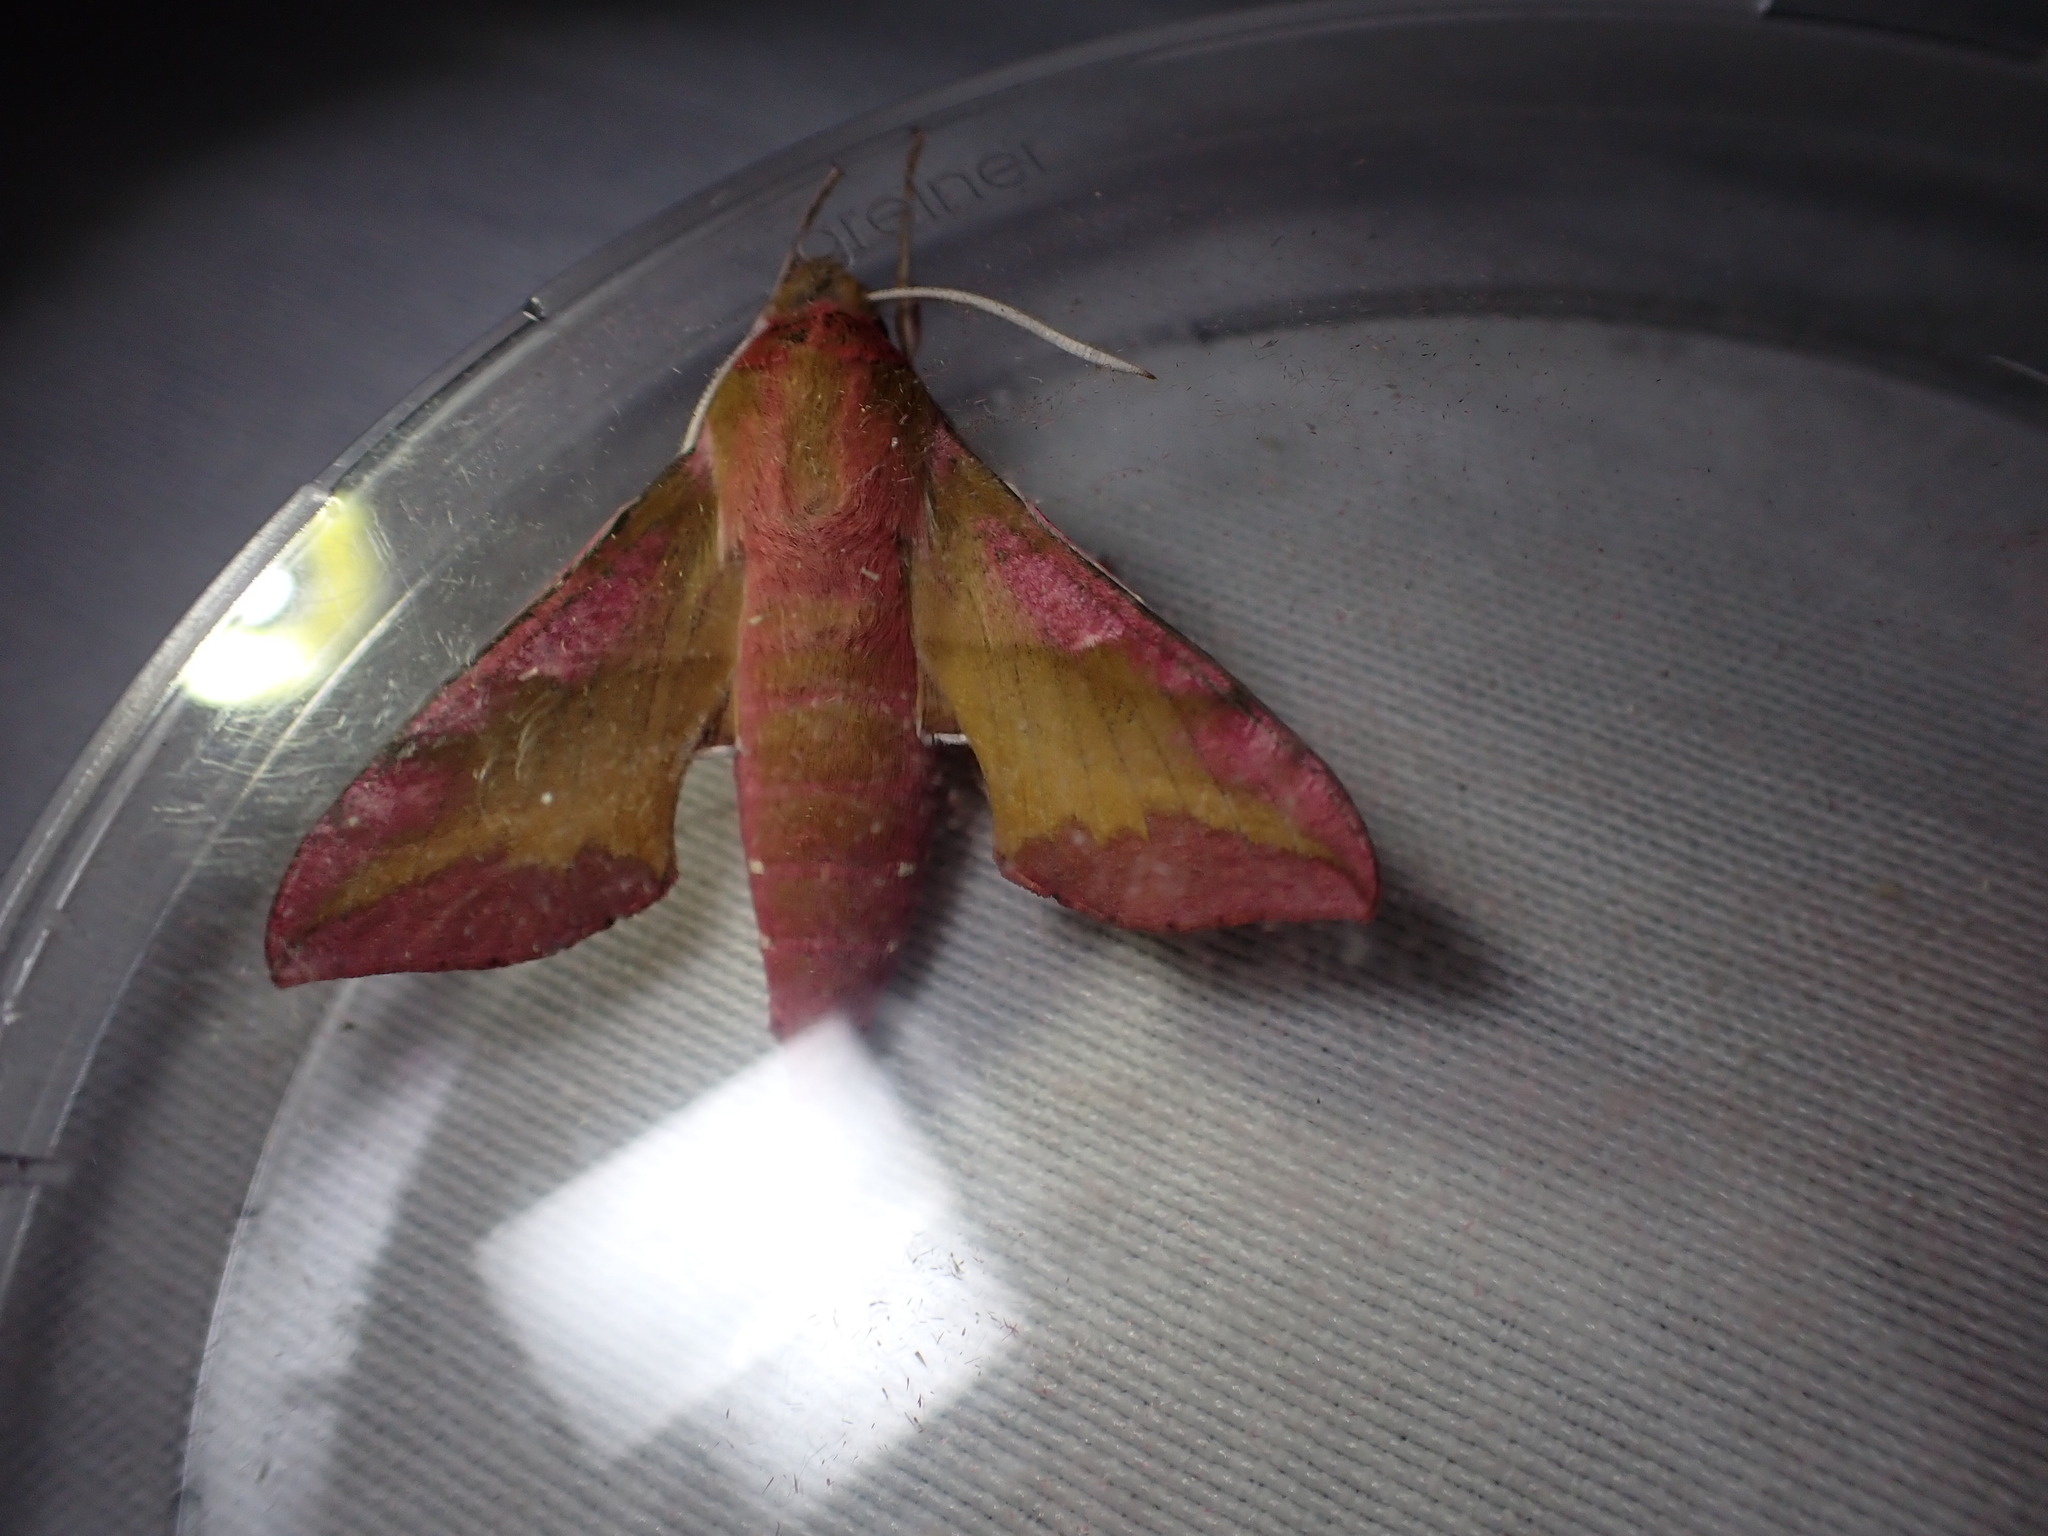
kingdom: Animalia
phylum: Arthropoda
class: Insecta
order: Lepidoptera
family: Sphingidae
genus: Deilephila
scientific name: Deilephila porcellus
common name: Small elephant hawk-moth
